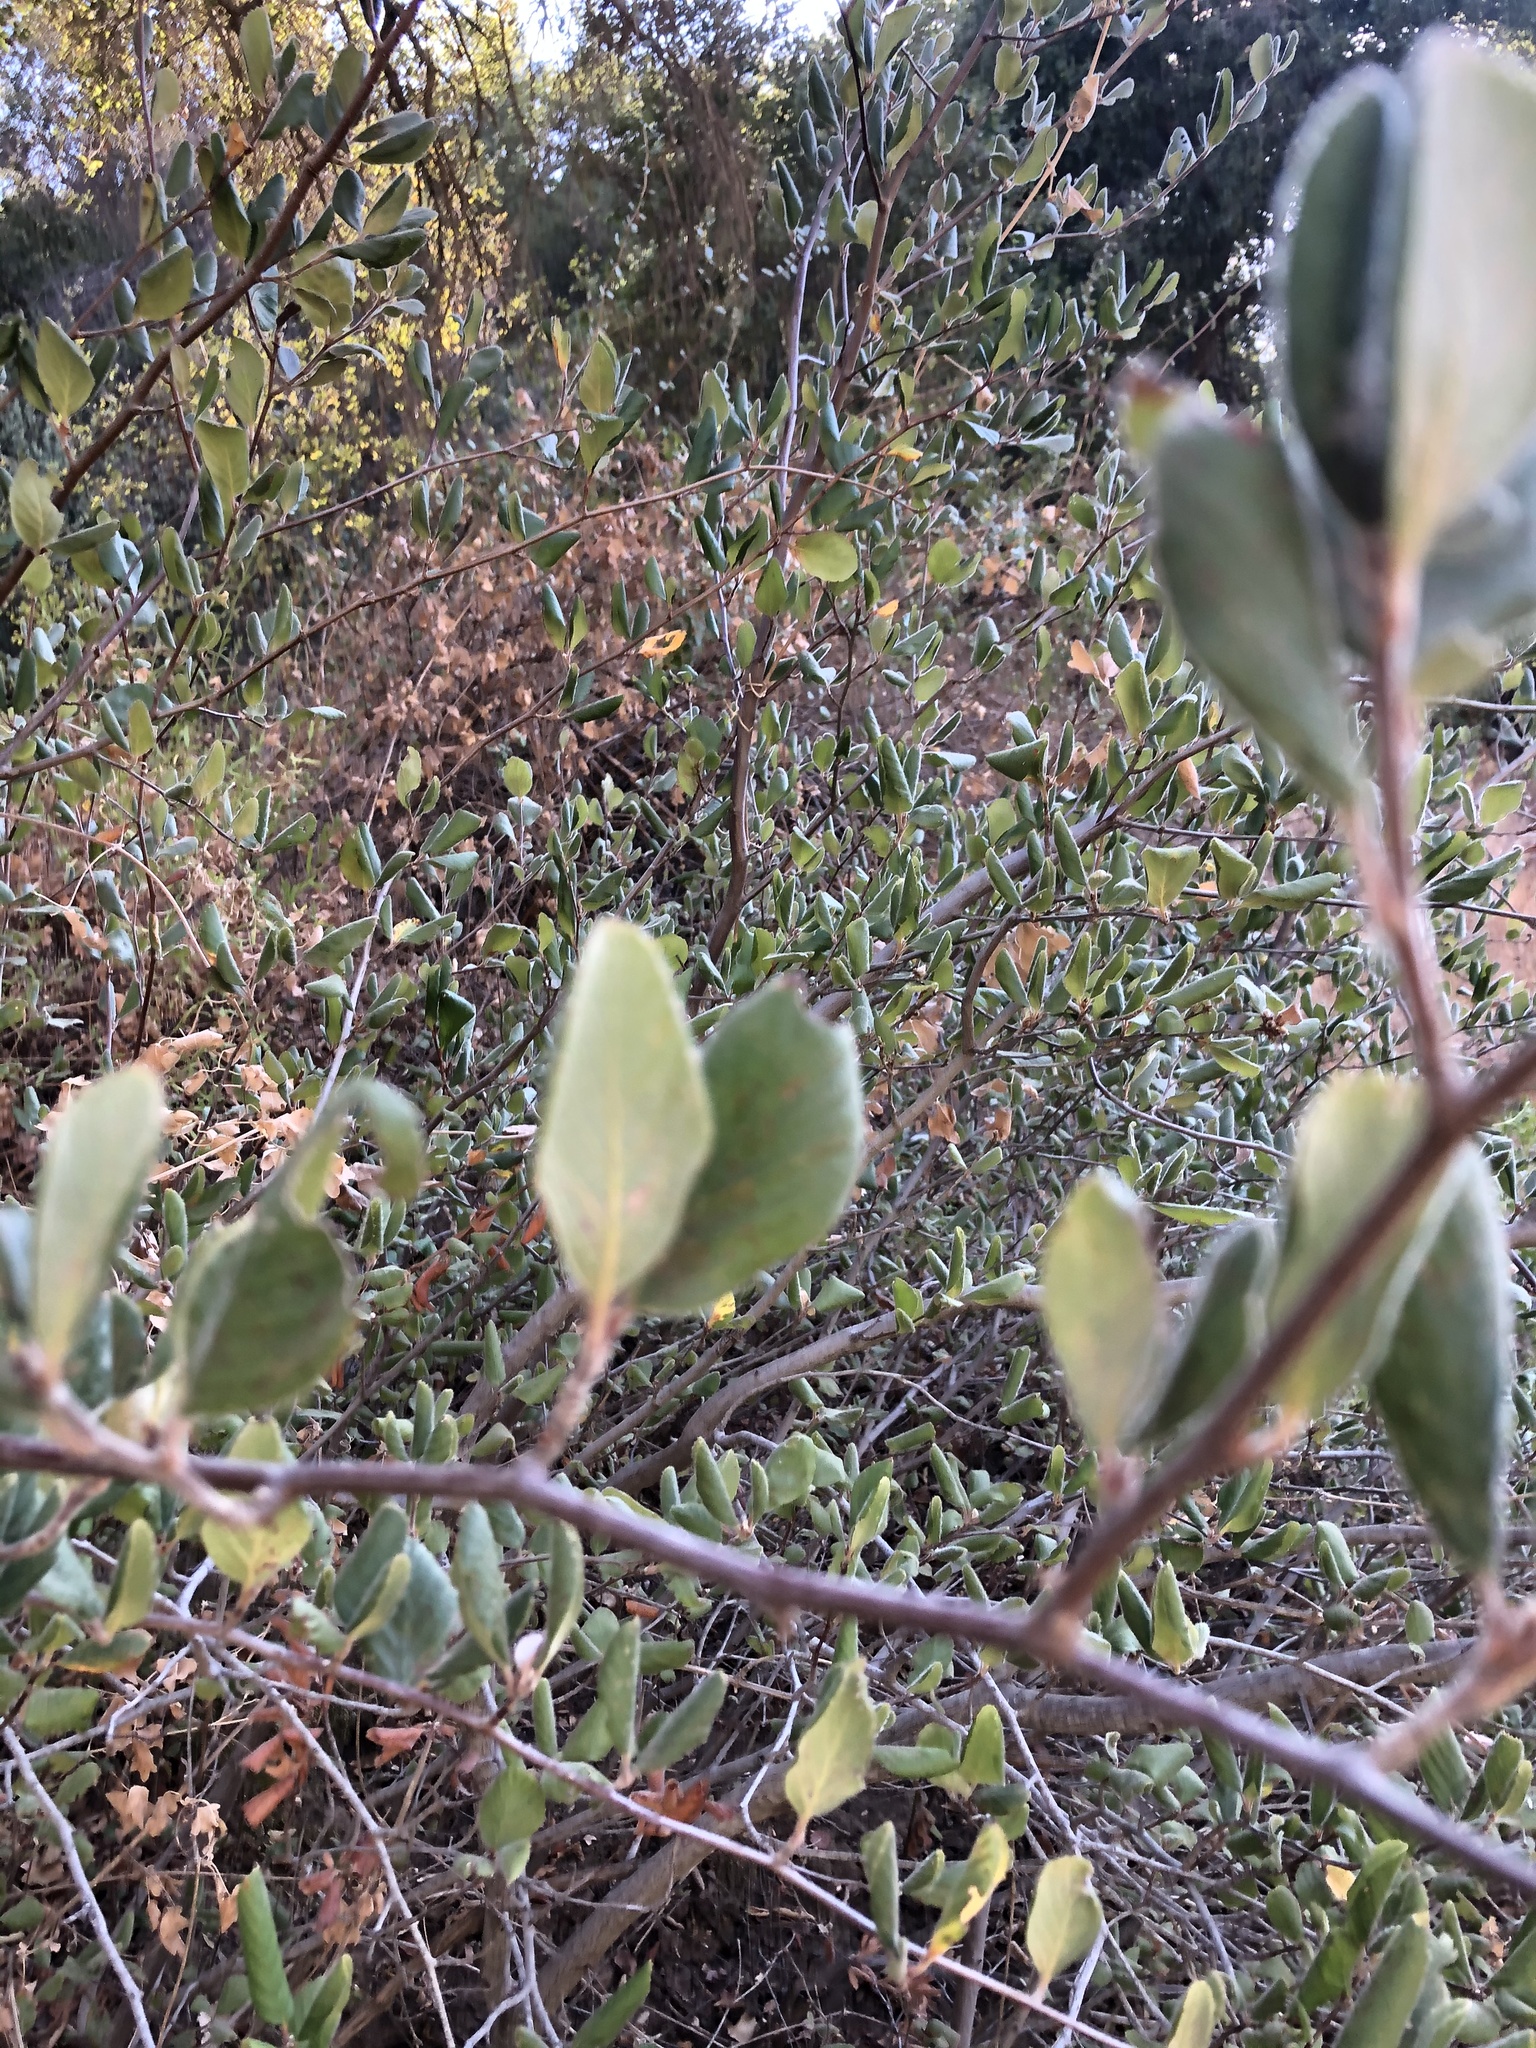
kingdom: Plantae
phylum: Tracheophyta
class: Magnoliopsida
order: Rosales
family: Rosaceae
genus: Cercocarpus
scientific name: Cercocarpus betuloides
